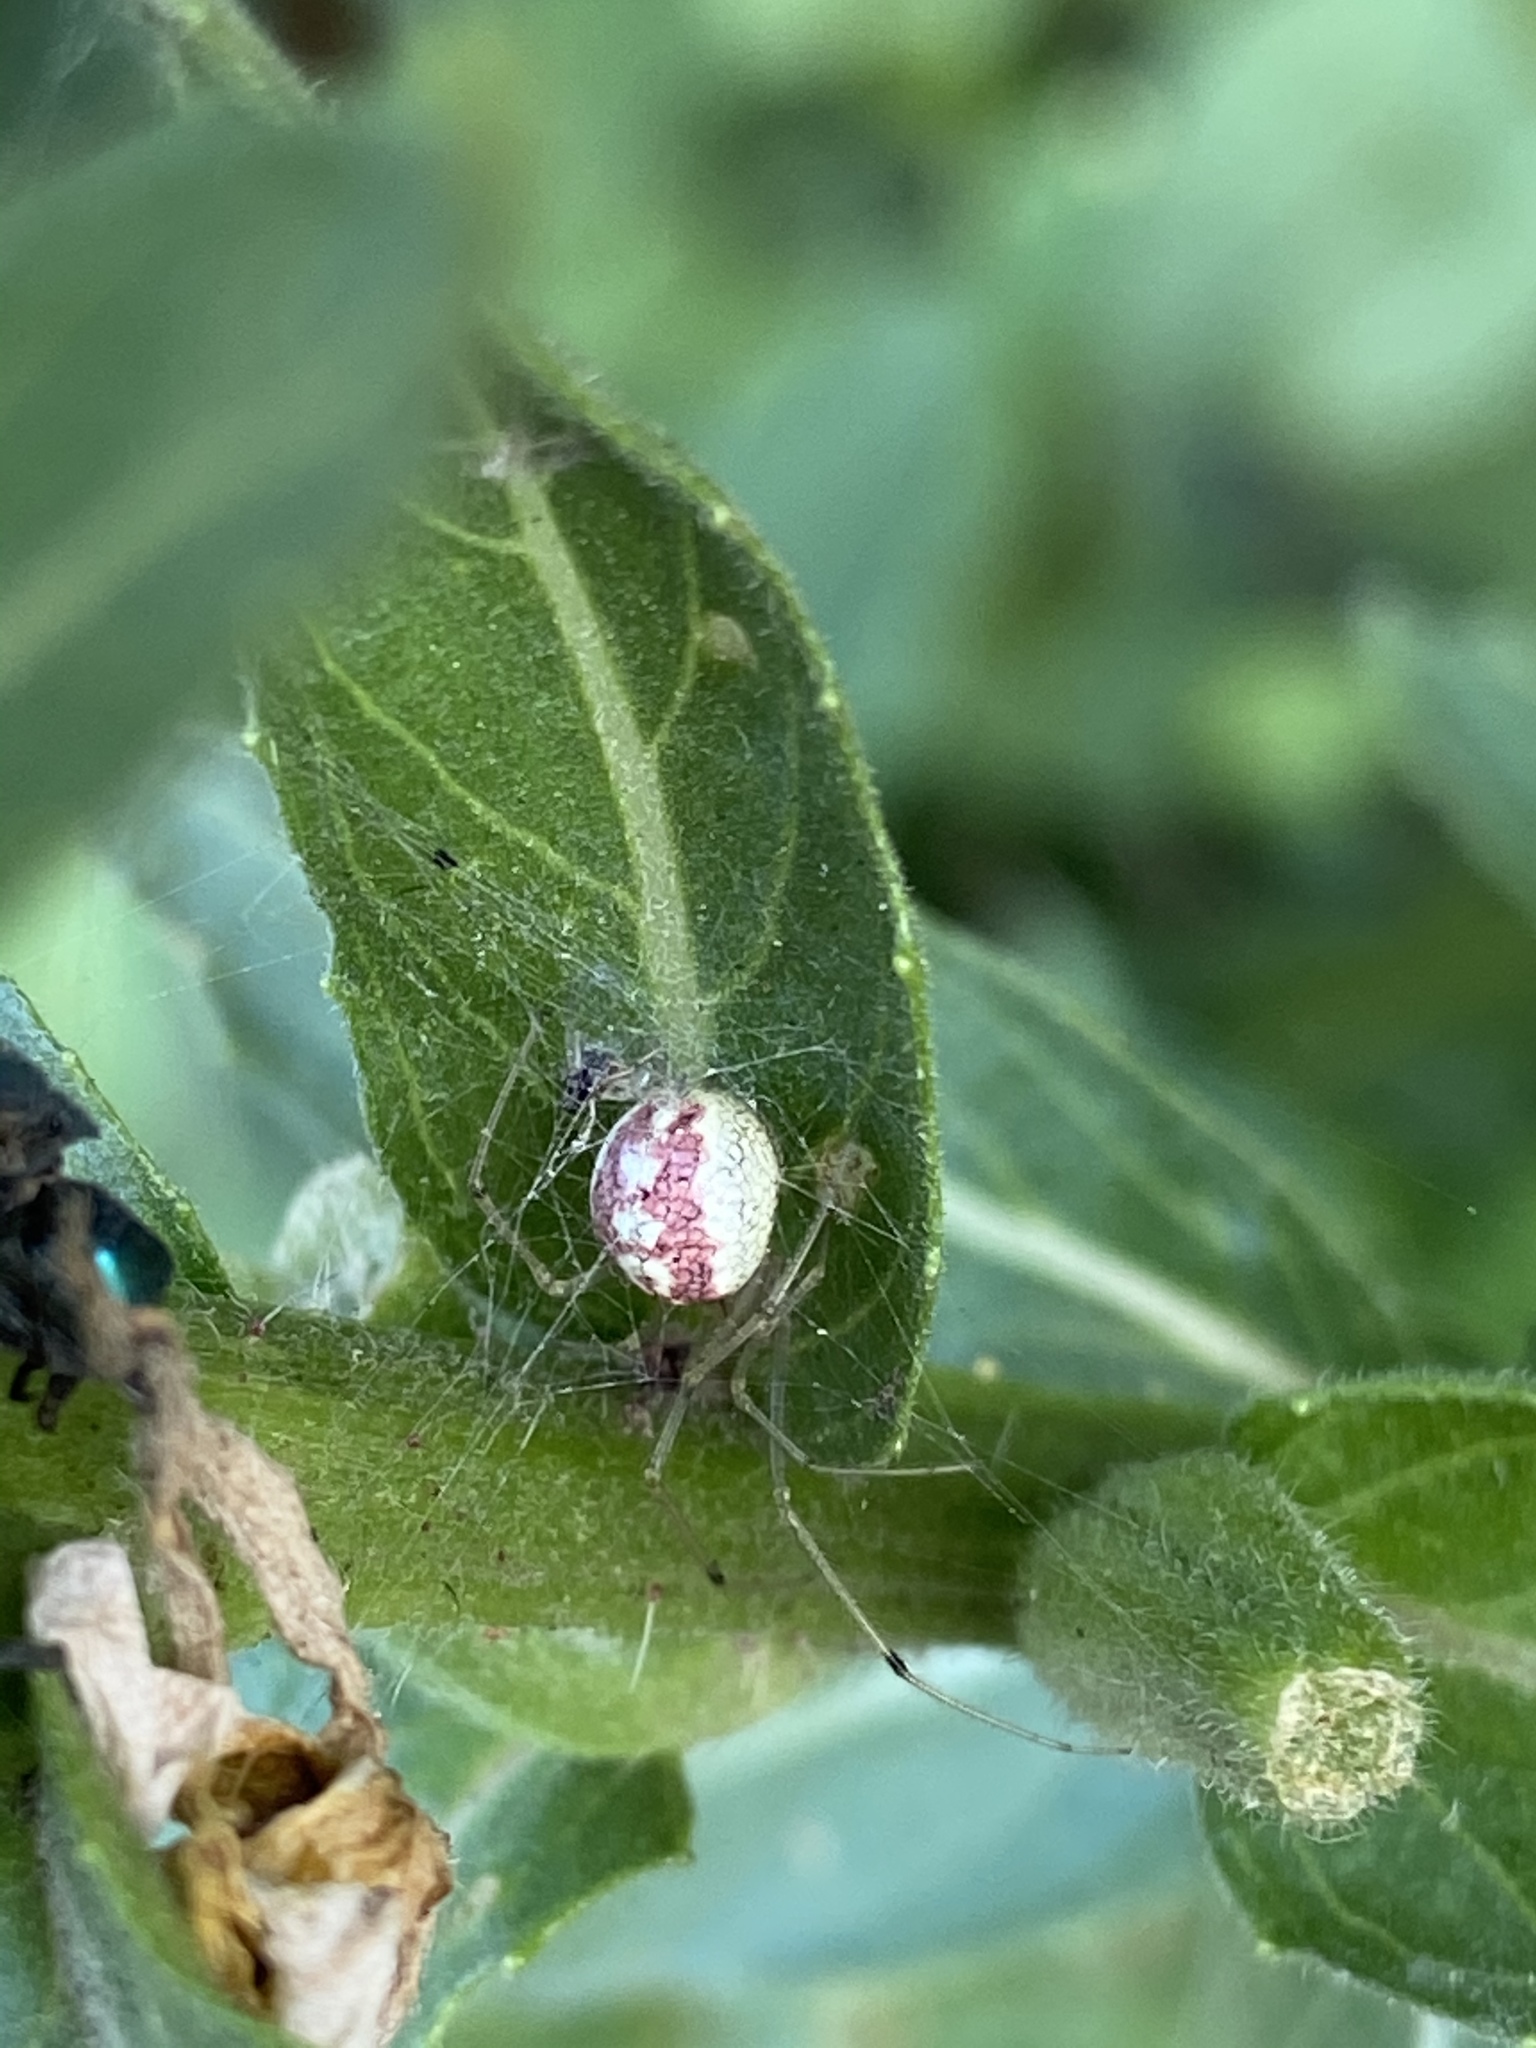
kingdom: Animalia
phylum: Arthropoda
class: Arachnida
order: Araneae
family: Theridiidae
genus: Enoplognatha
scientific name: Enoplognatha ovata
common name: Common candy-striped spider
